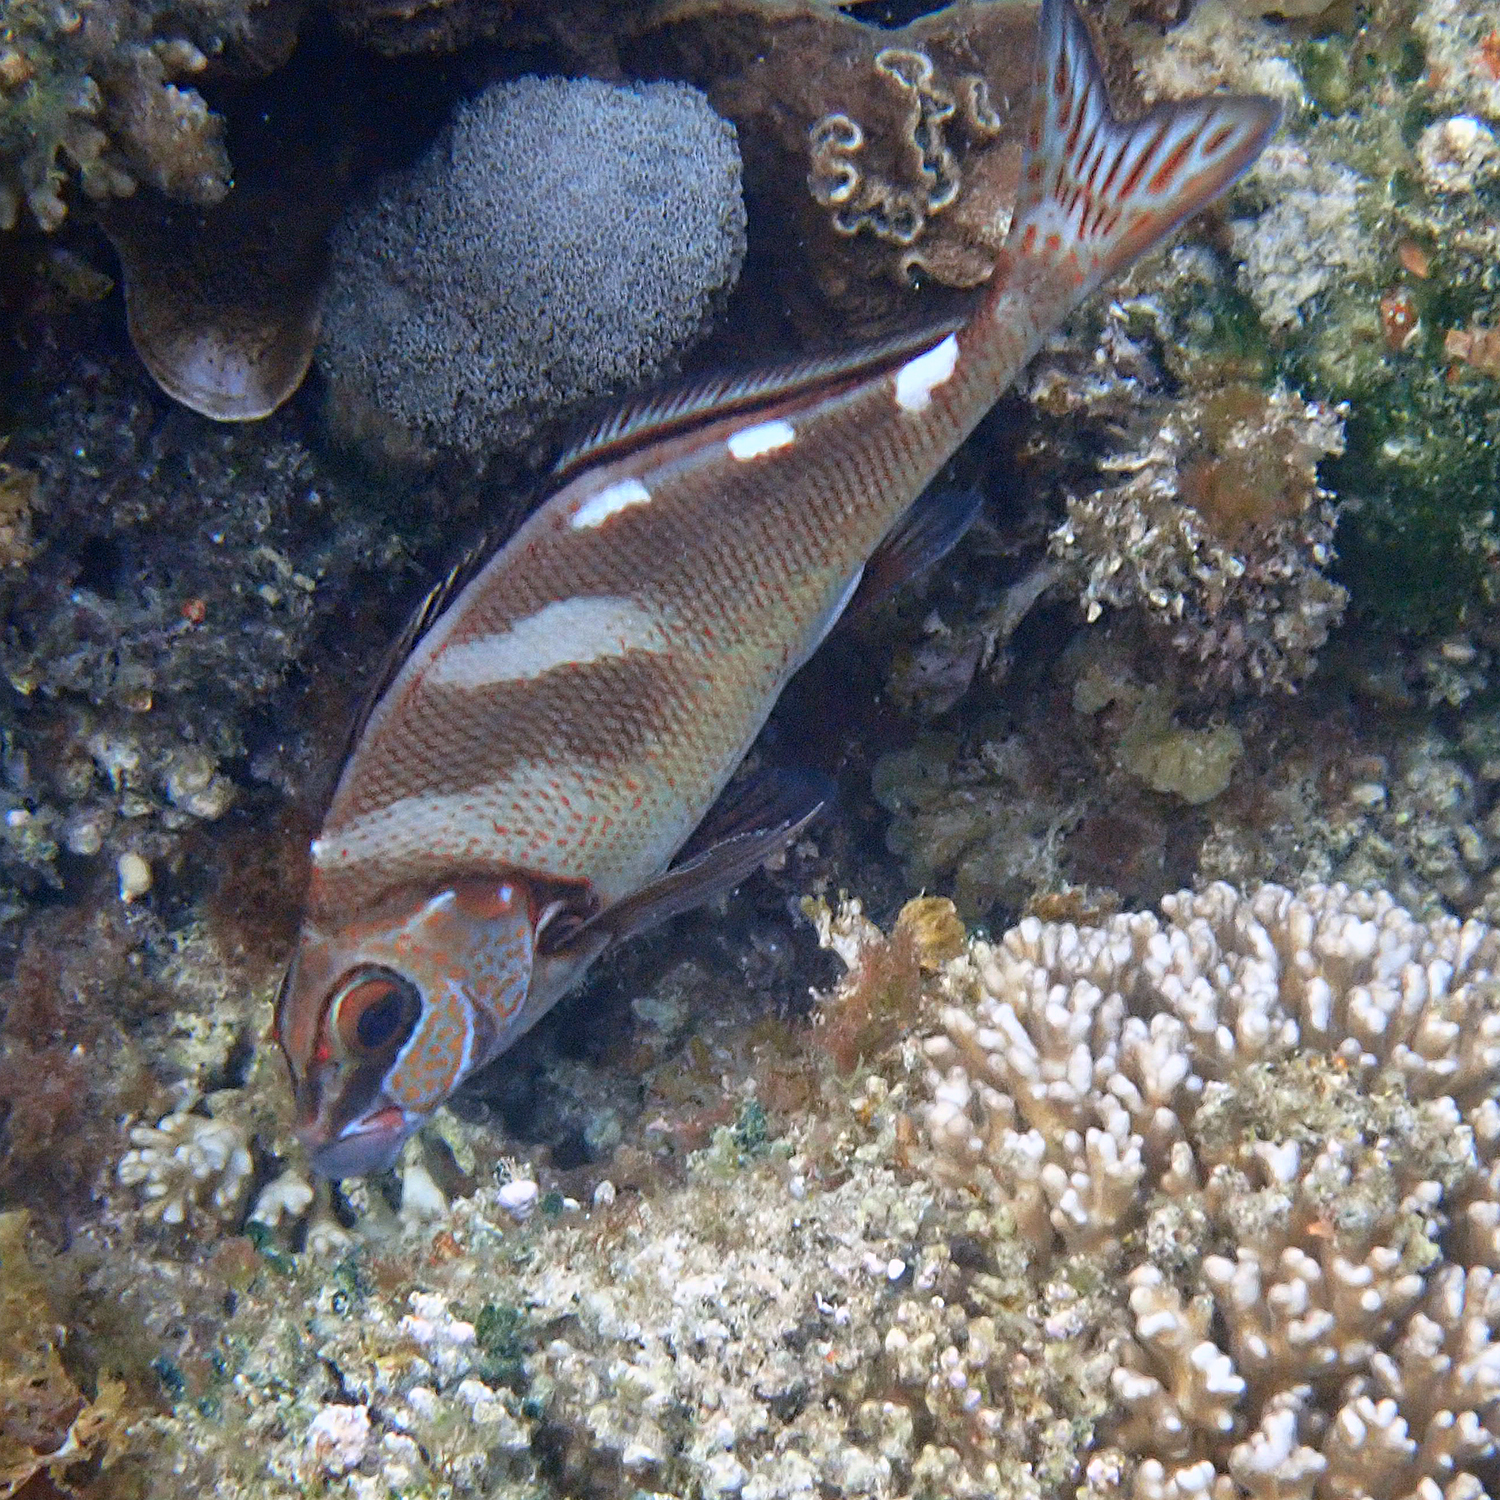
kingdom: Animalia
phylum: Chordata
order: Perciformes
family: Latridae
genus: Morwong
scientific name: Morwong ephippium
